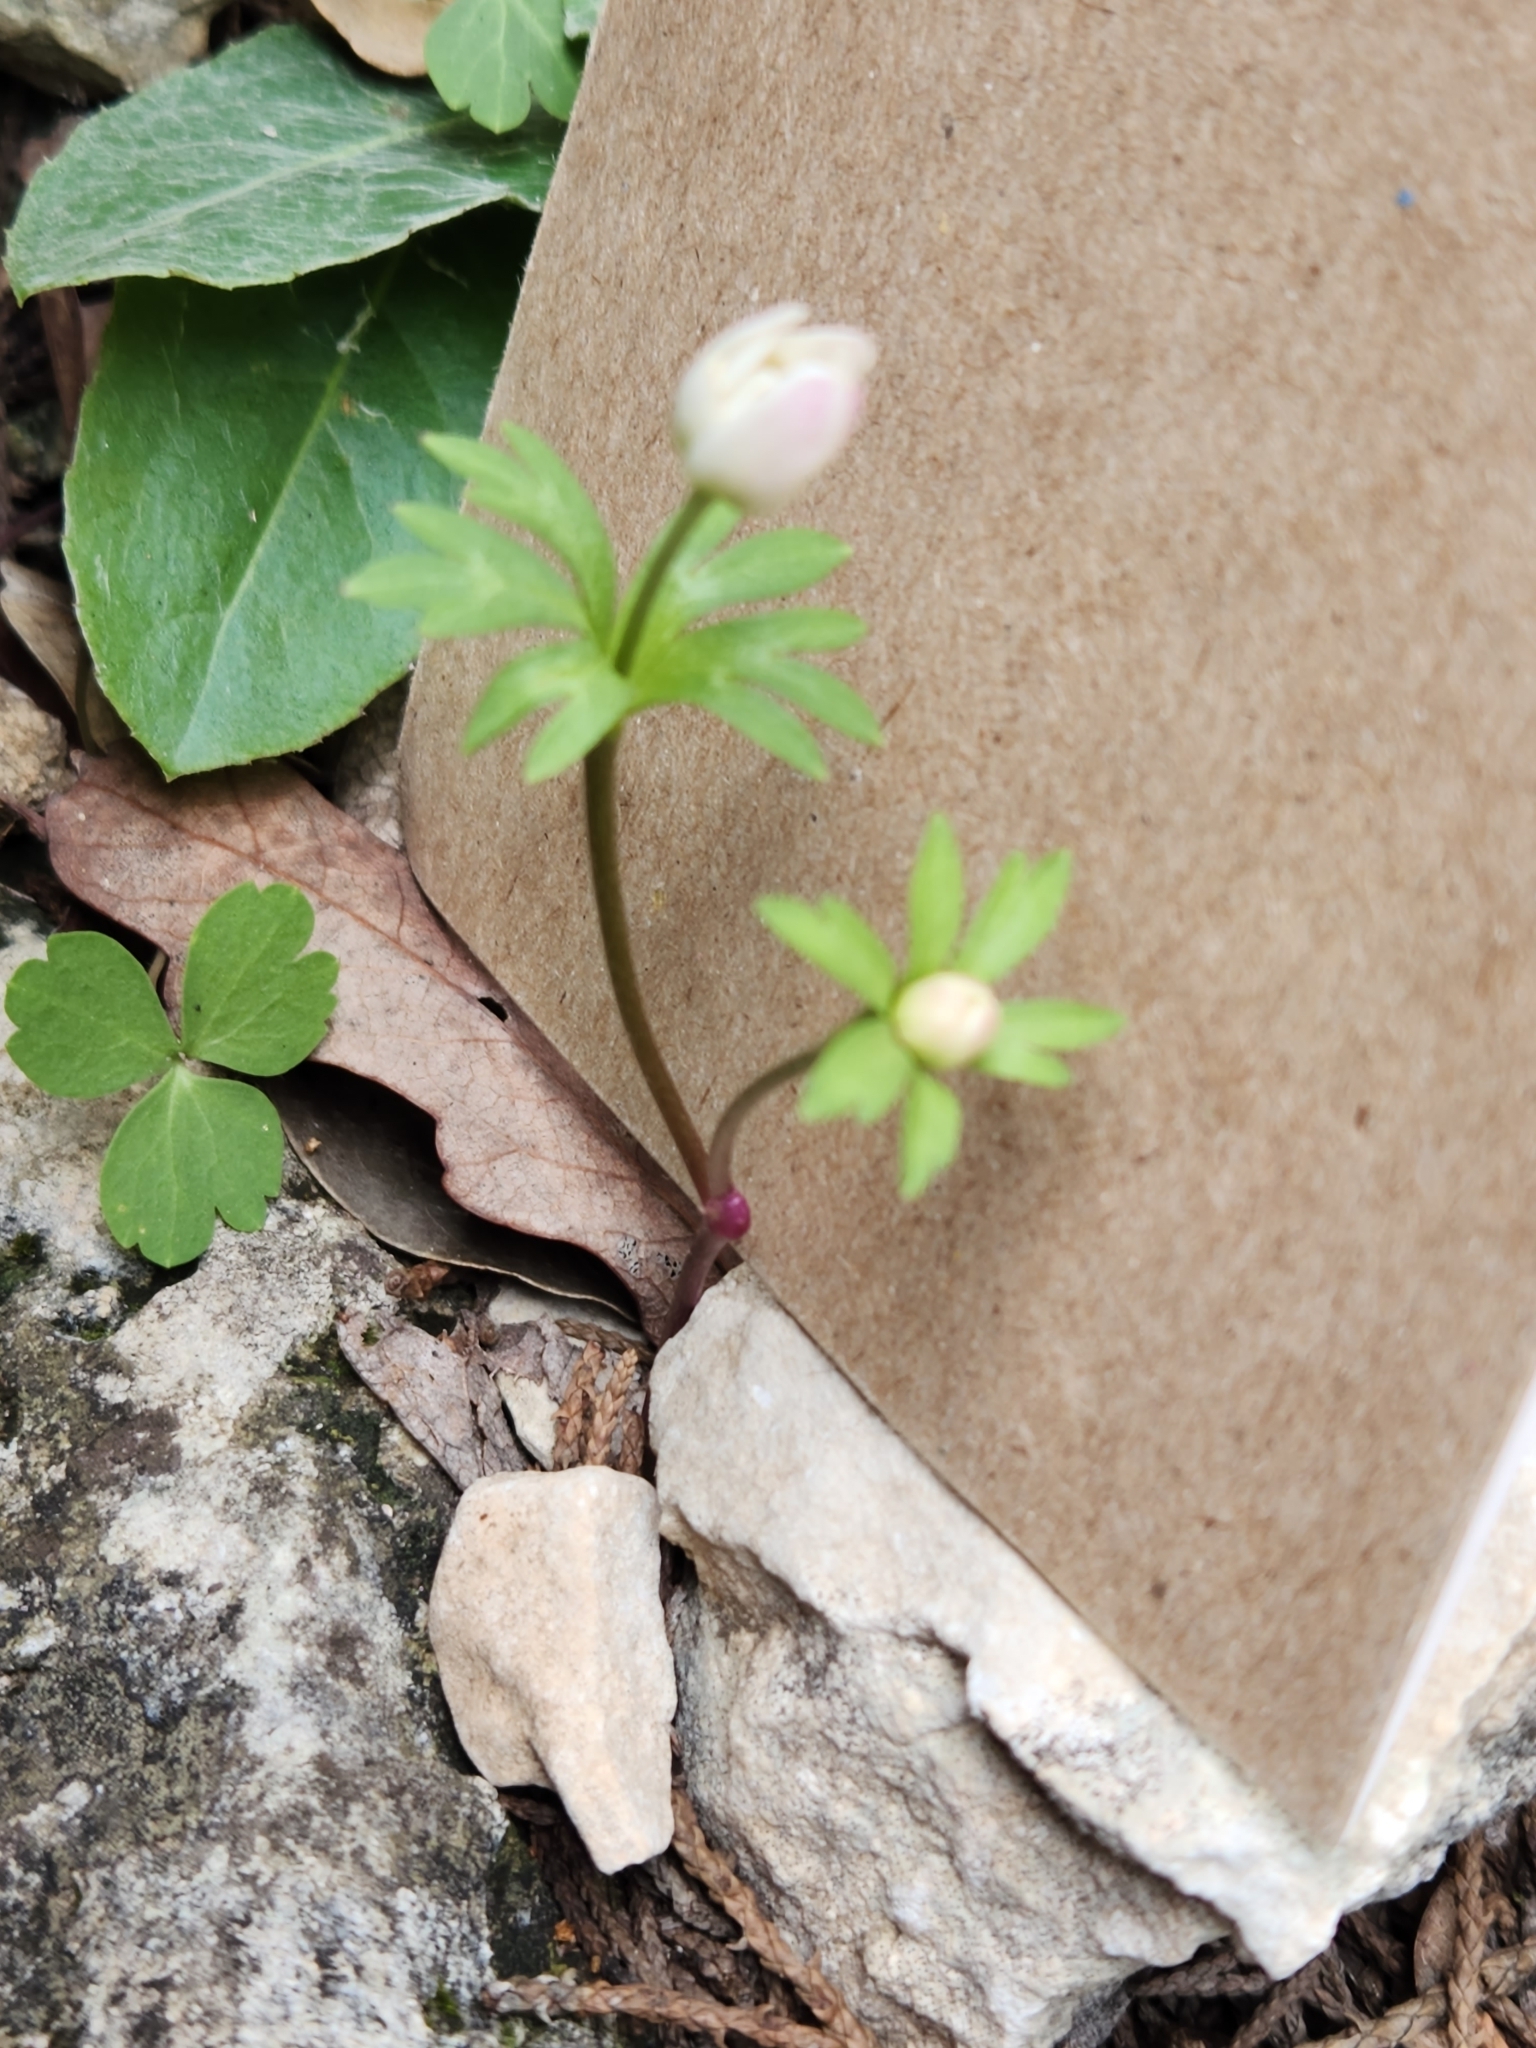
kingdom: Plantae
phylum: Tracheophyta
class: Magnoliopsida
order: Ranunculales
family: Ranunculaceae
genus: Anemone
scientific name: Anemone edwardsiana
